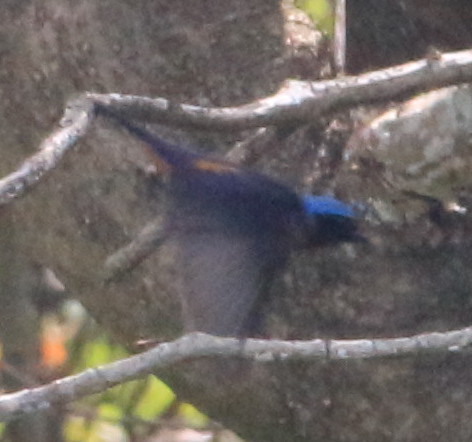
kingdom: Animalia
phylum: Chordata
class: Aves
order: Passeriformes
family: Fringillidae
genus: Euphonia
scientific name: Euphonia elegantissima
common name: Elegant euphonia
